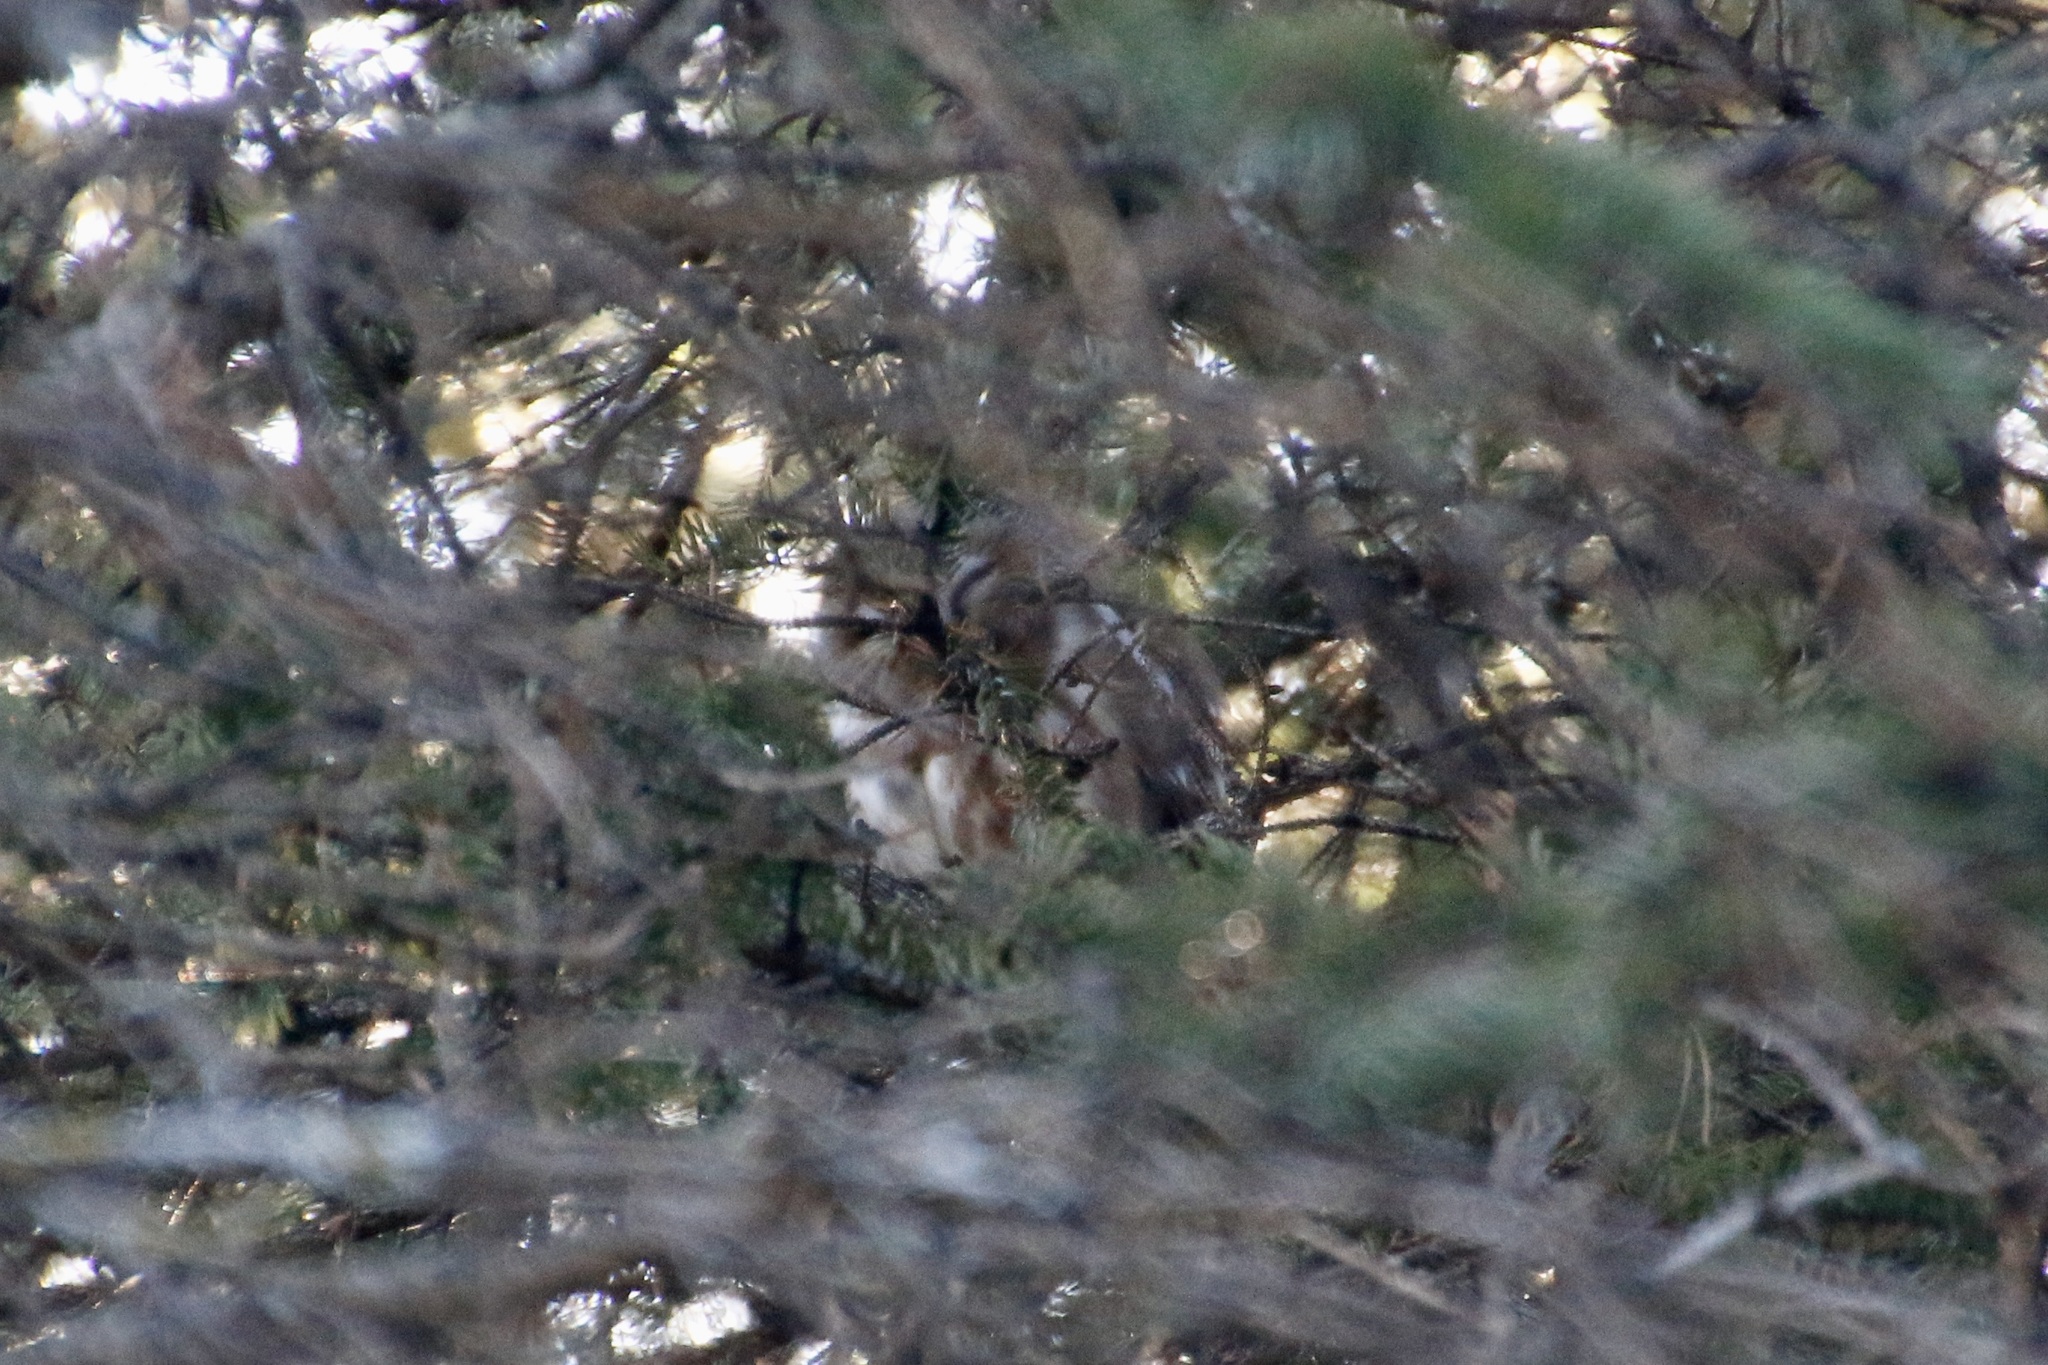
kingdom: Animalia
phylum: Chordata
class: Aves
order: Strigiformes
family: Strigidae
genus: Aegolius
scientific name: Aegolius acadicus
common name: Northern saw-whet owl
